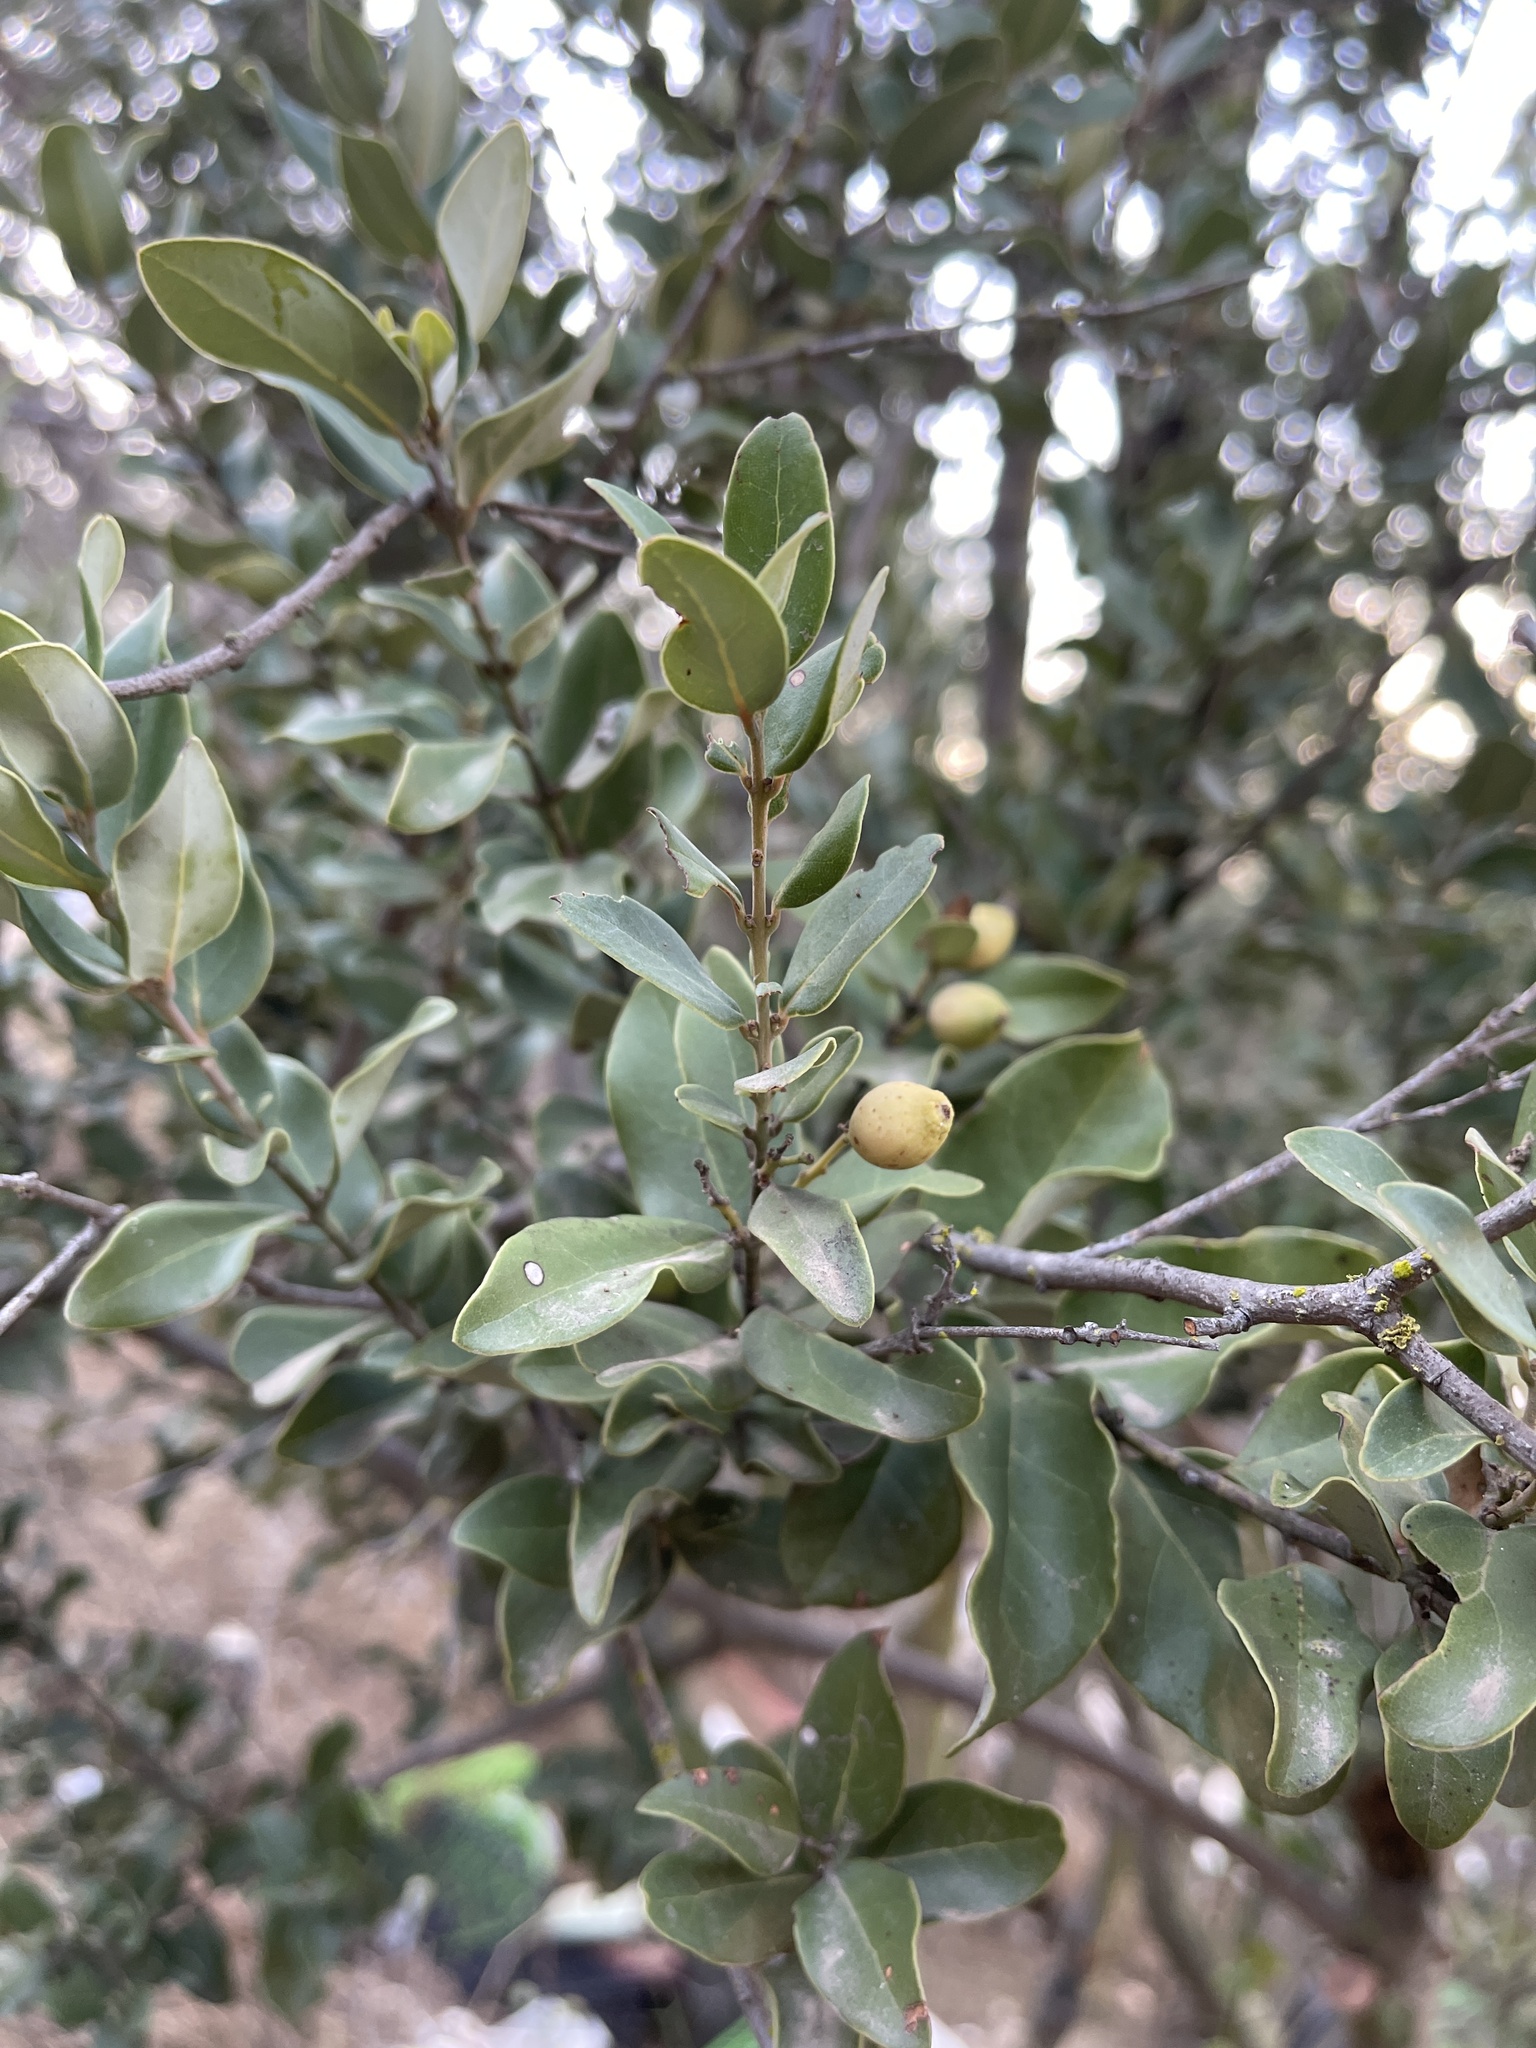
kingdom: Plantae
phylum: Tracheophyta
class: Magnoliopsida
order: Laurales
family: Lauraceae
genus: Cryptocarya
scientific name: Cryptocarya alba
